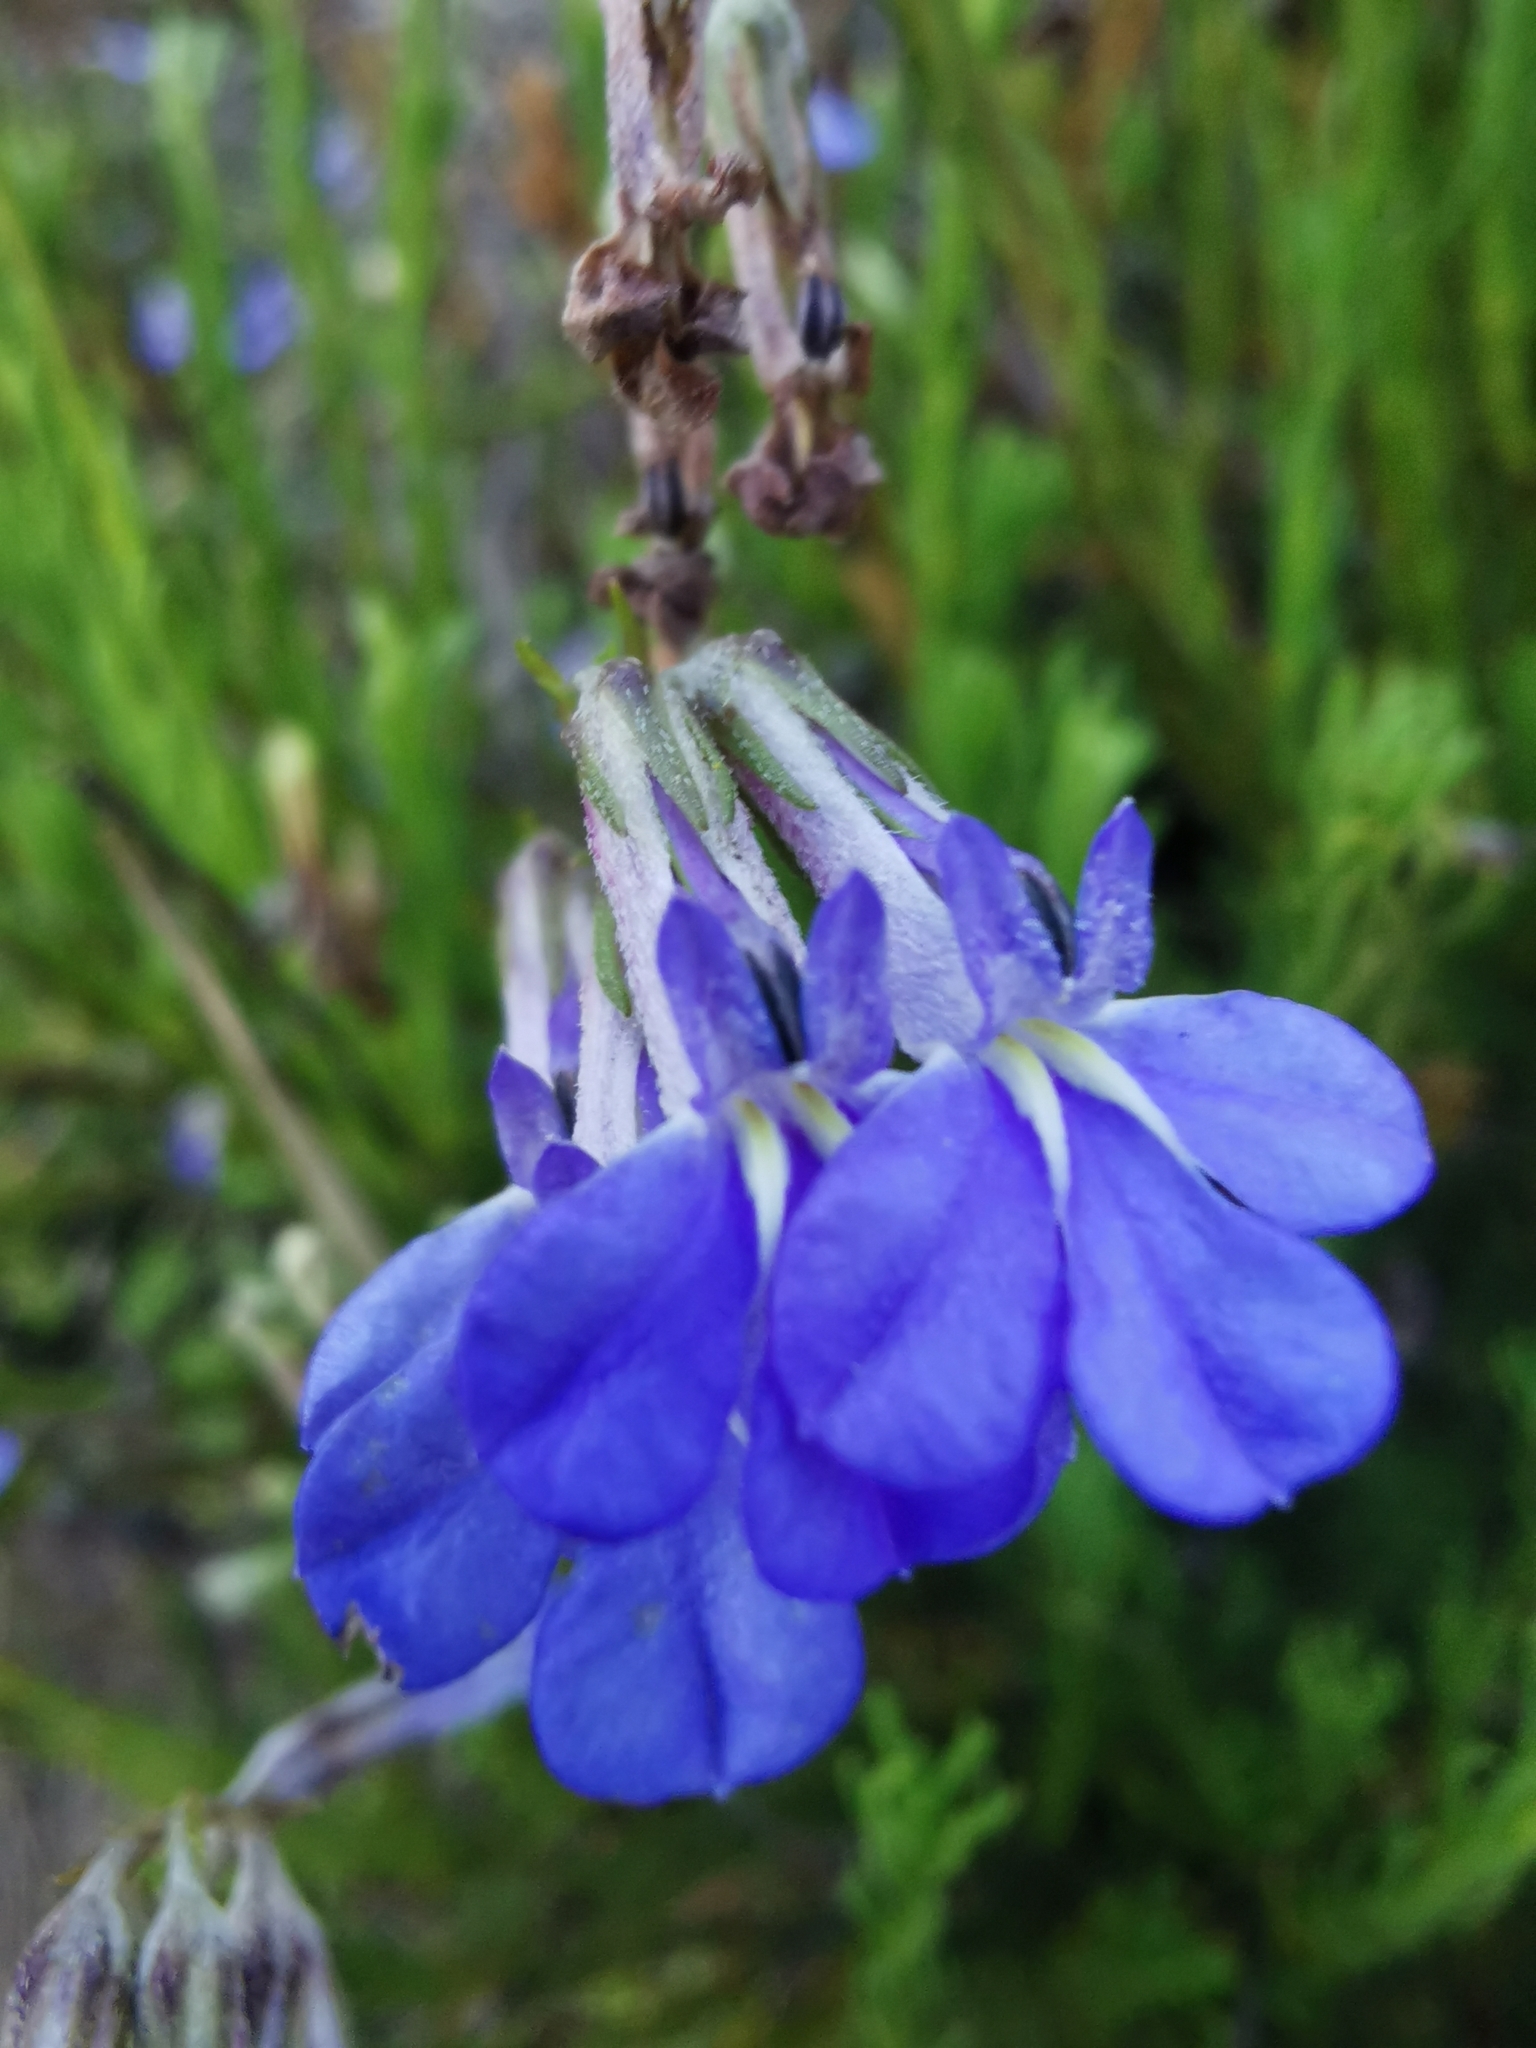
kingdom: Plantae
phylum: Tracheophyta
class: Magnoliopsida
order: Asterales
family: Campanulaceae
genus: Lobelia
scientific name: Lobelia pinifolia
